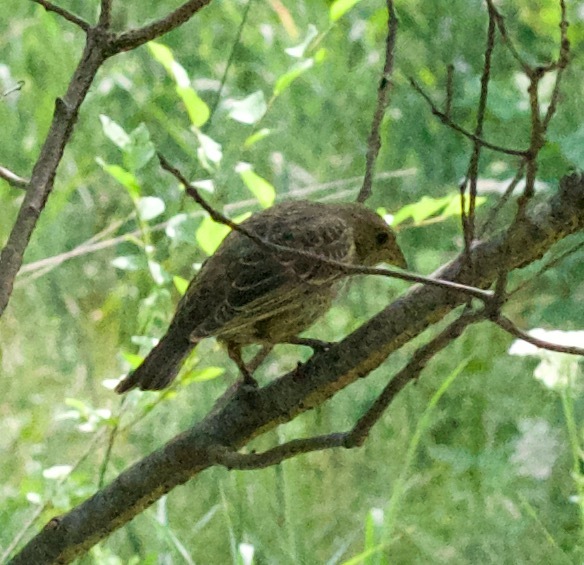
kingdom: Animalia
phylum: Chordata
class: Aves
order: Passeriformes
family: Icteridae
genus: Molothrus
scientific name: Molothrus ater
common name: Brown-headed cowbird
